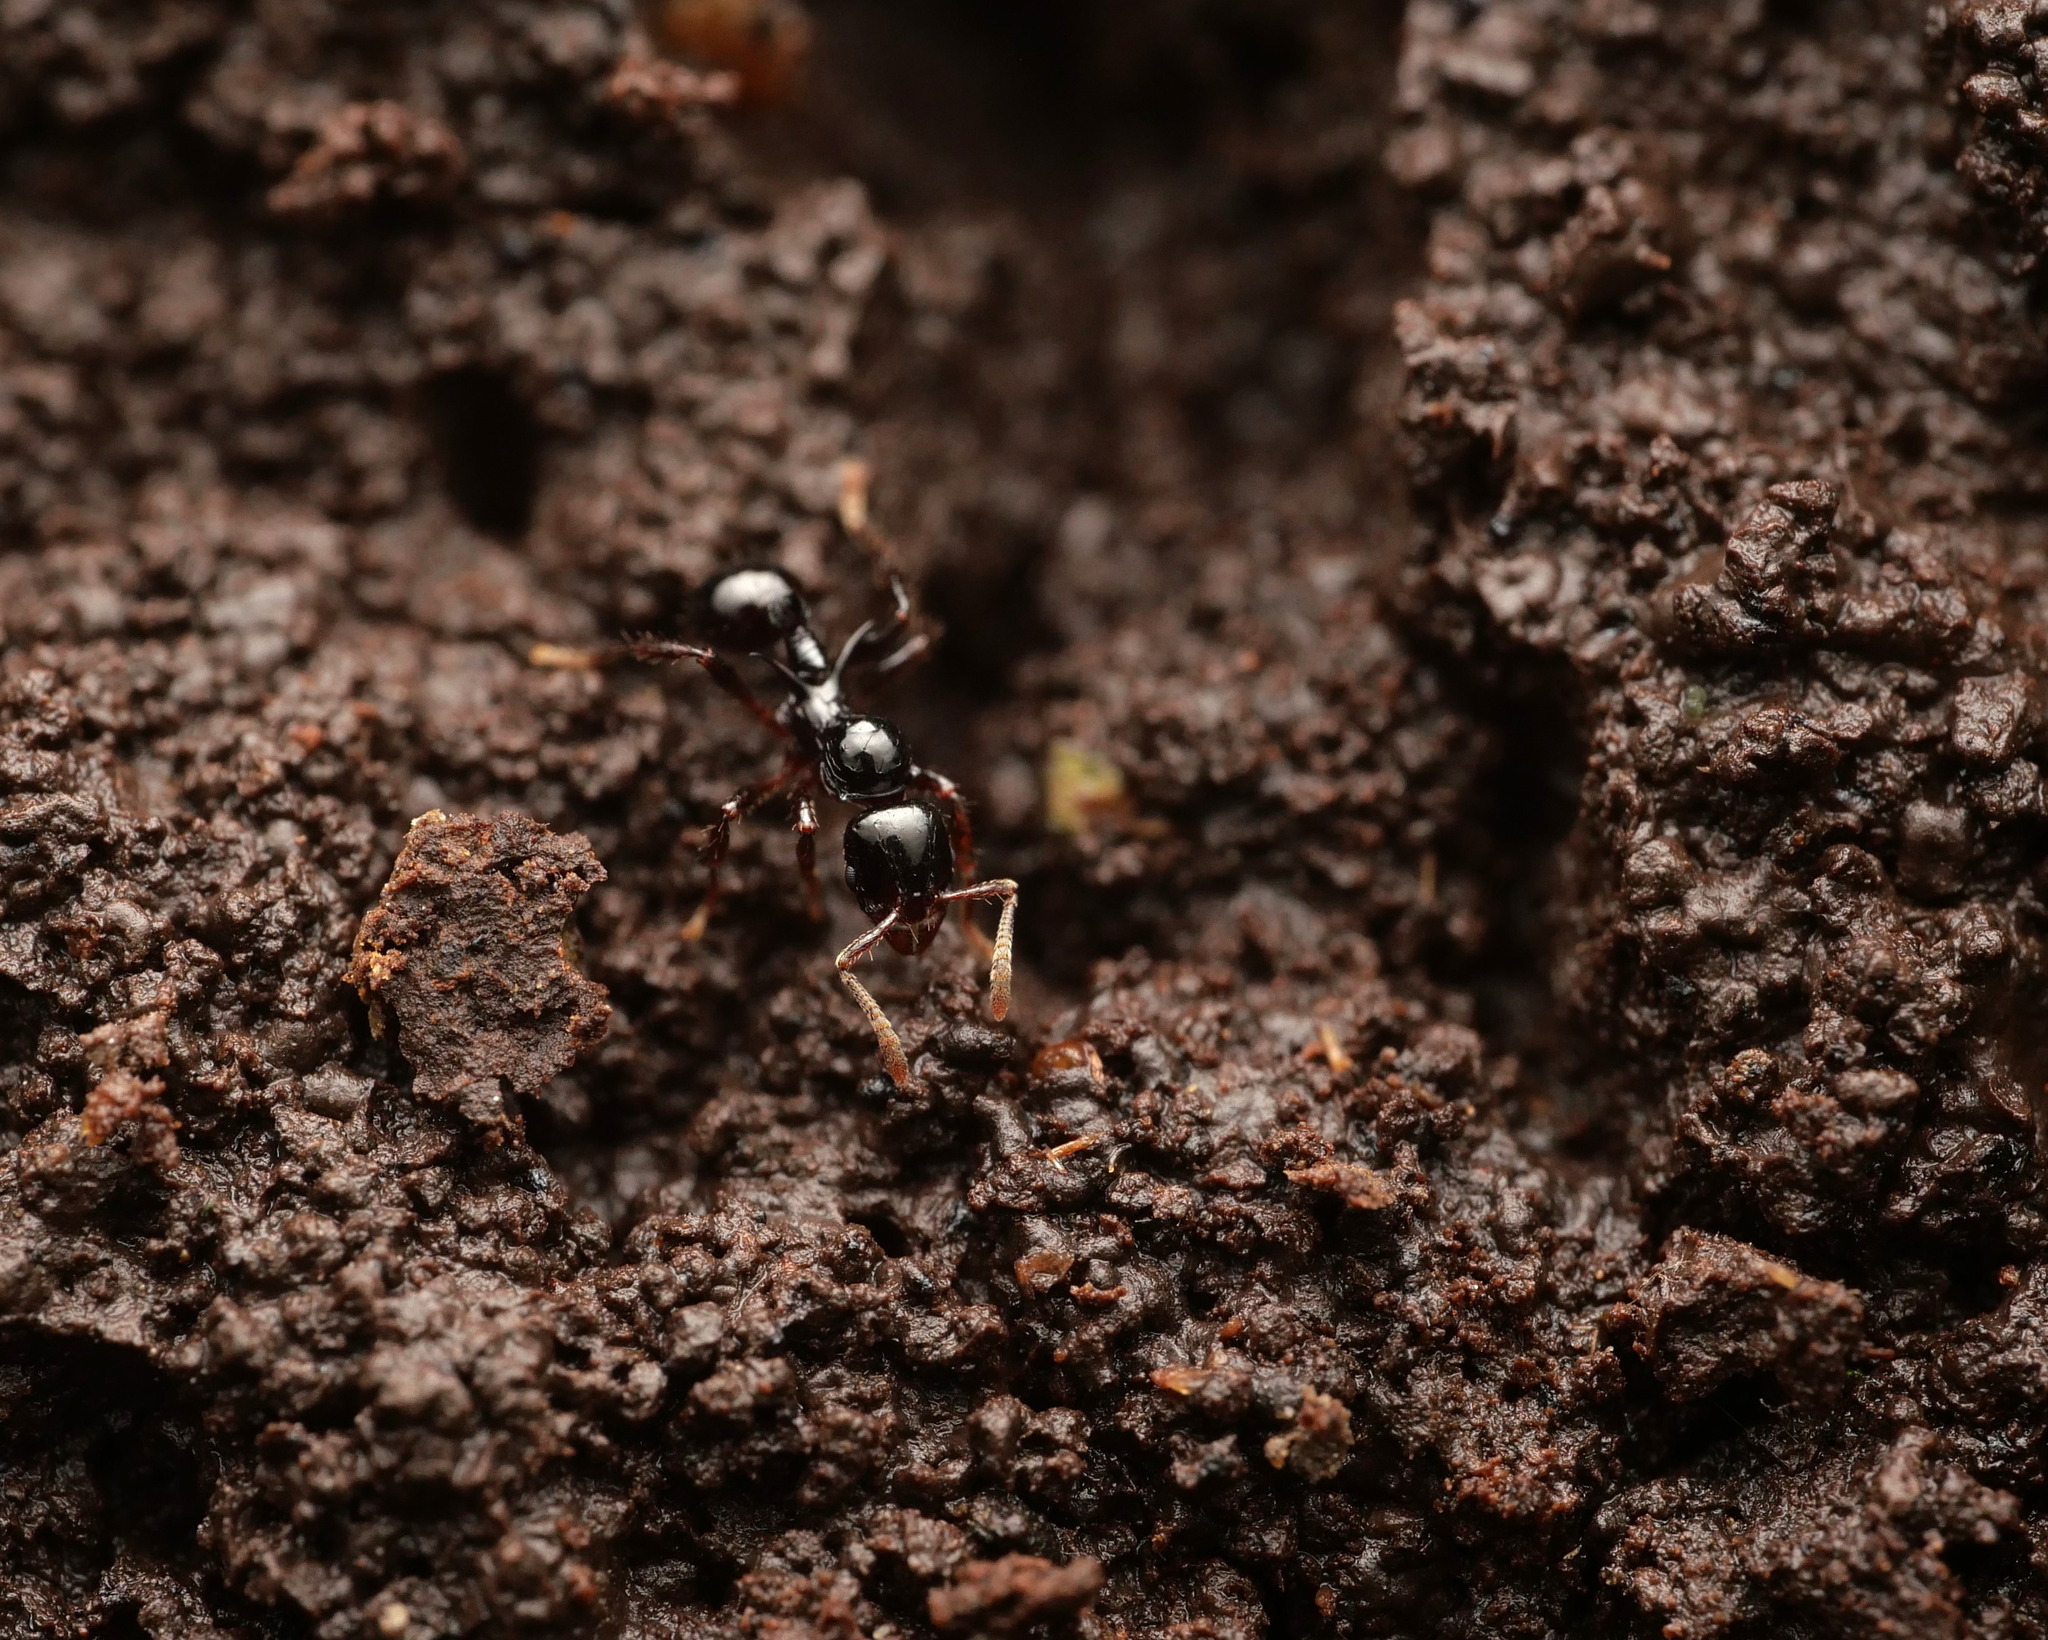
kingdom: Animalia
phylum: Arthropoda
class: Insecta
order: Hymenoptera
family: Formicidae
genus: Lordomyrma
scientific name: Lordomyrma crawleyi
